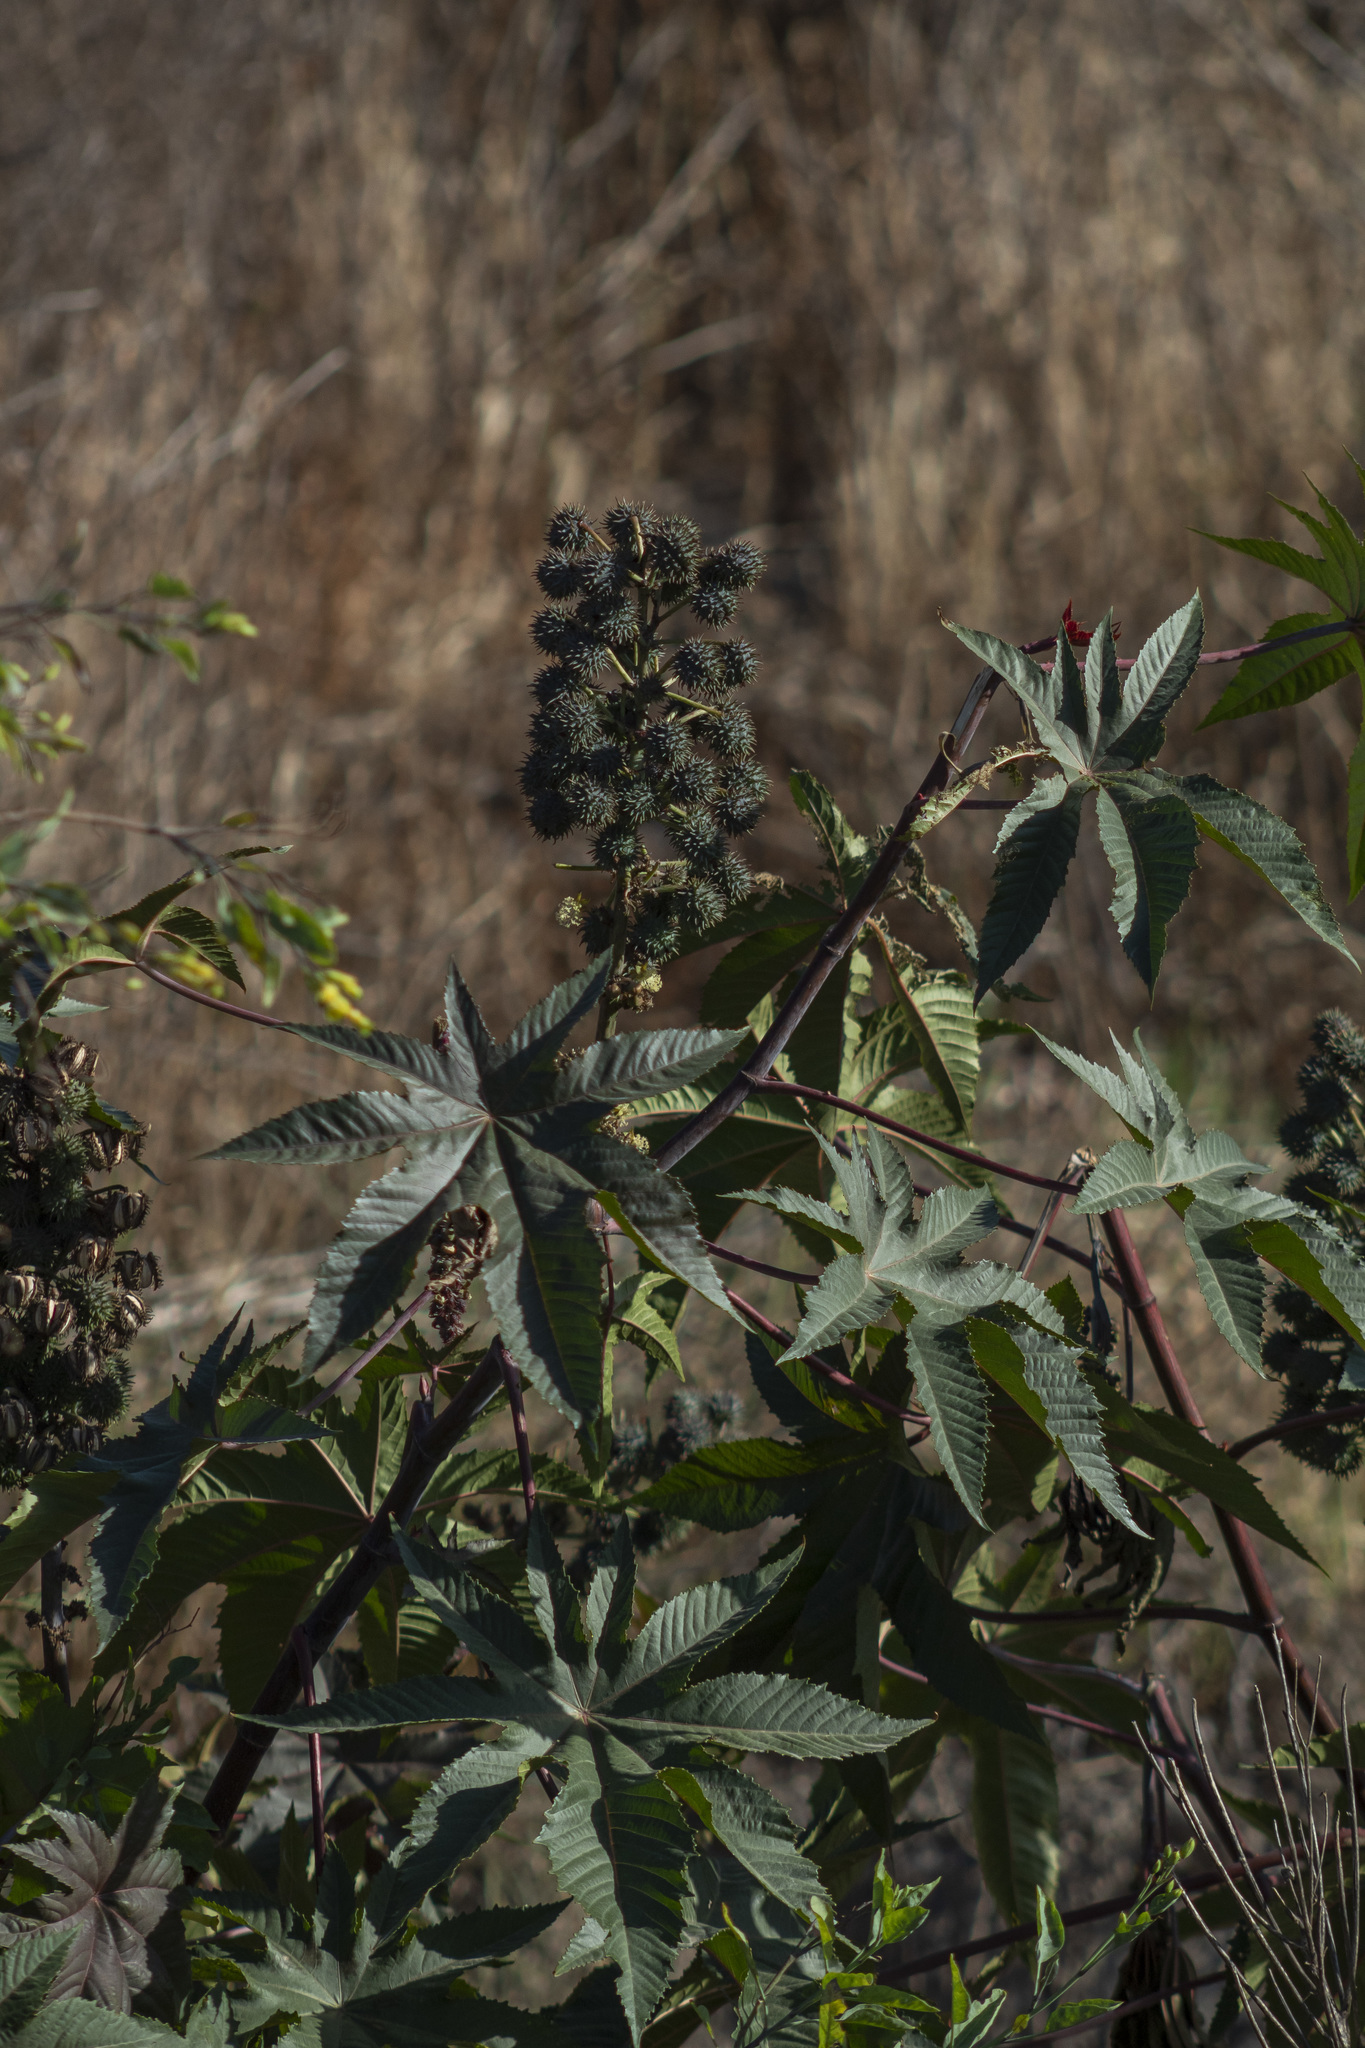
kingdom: Plantae
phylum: Tracheophyta
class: Magnoliopsida
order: Malpighiales
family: Euphorbiaceae
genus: Ricinus
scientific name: Ricinus communis
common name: Castor-oil-plant
